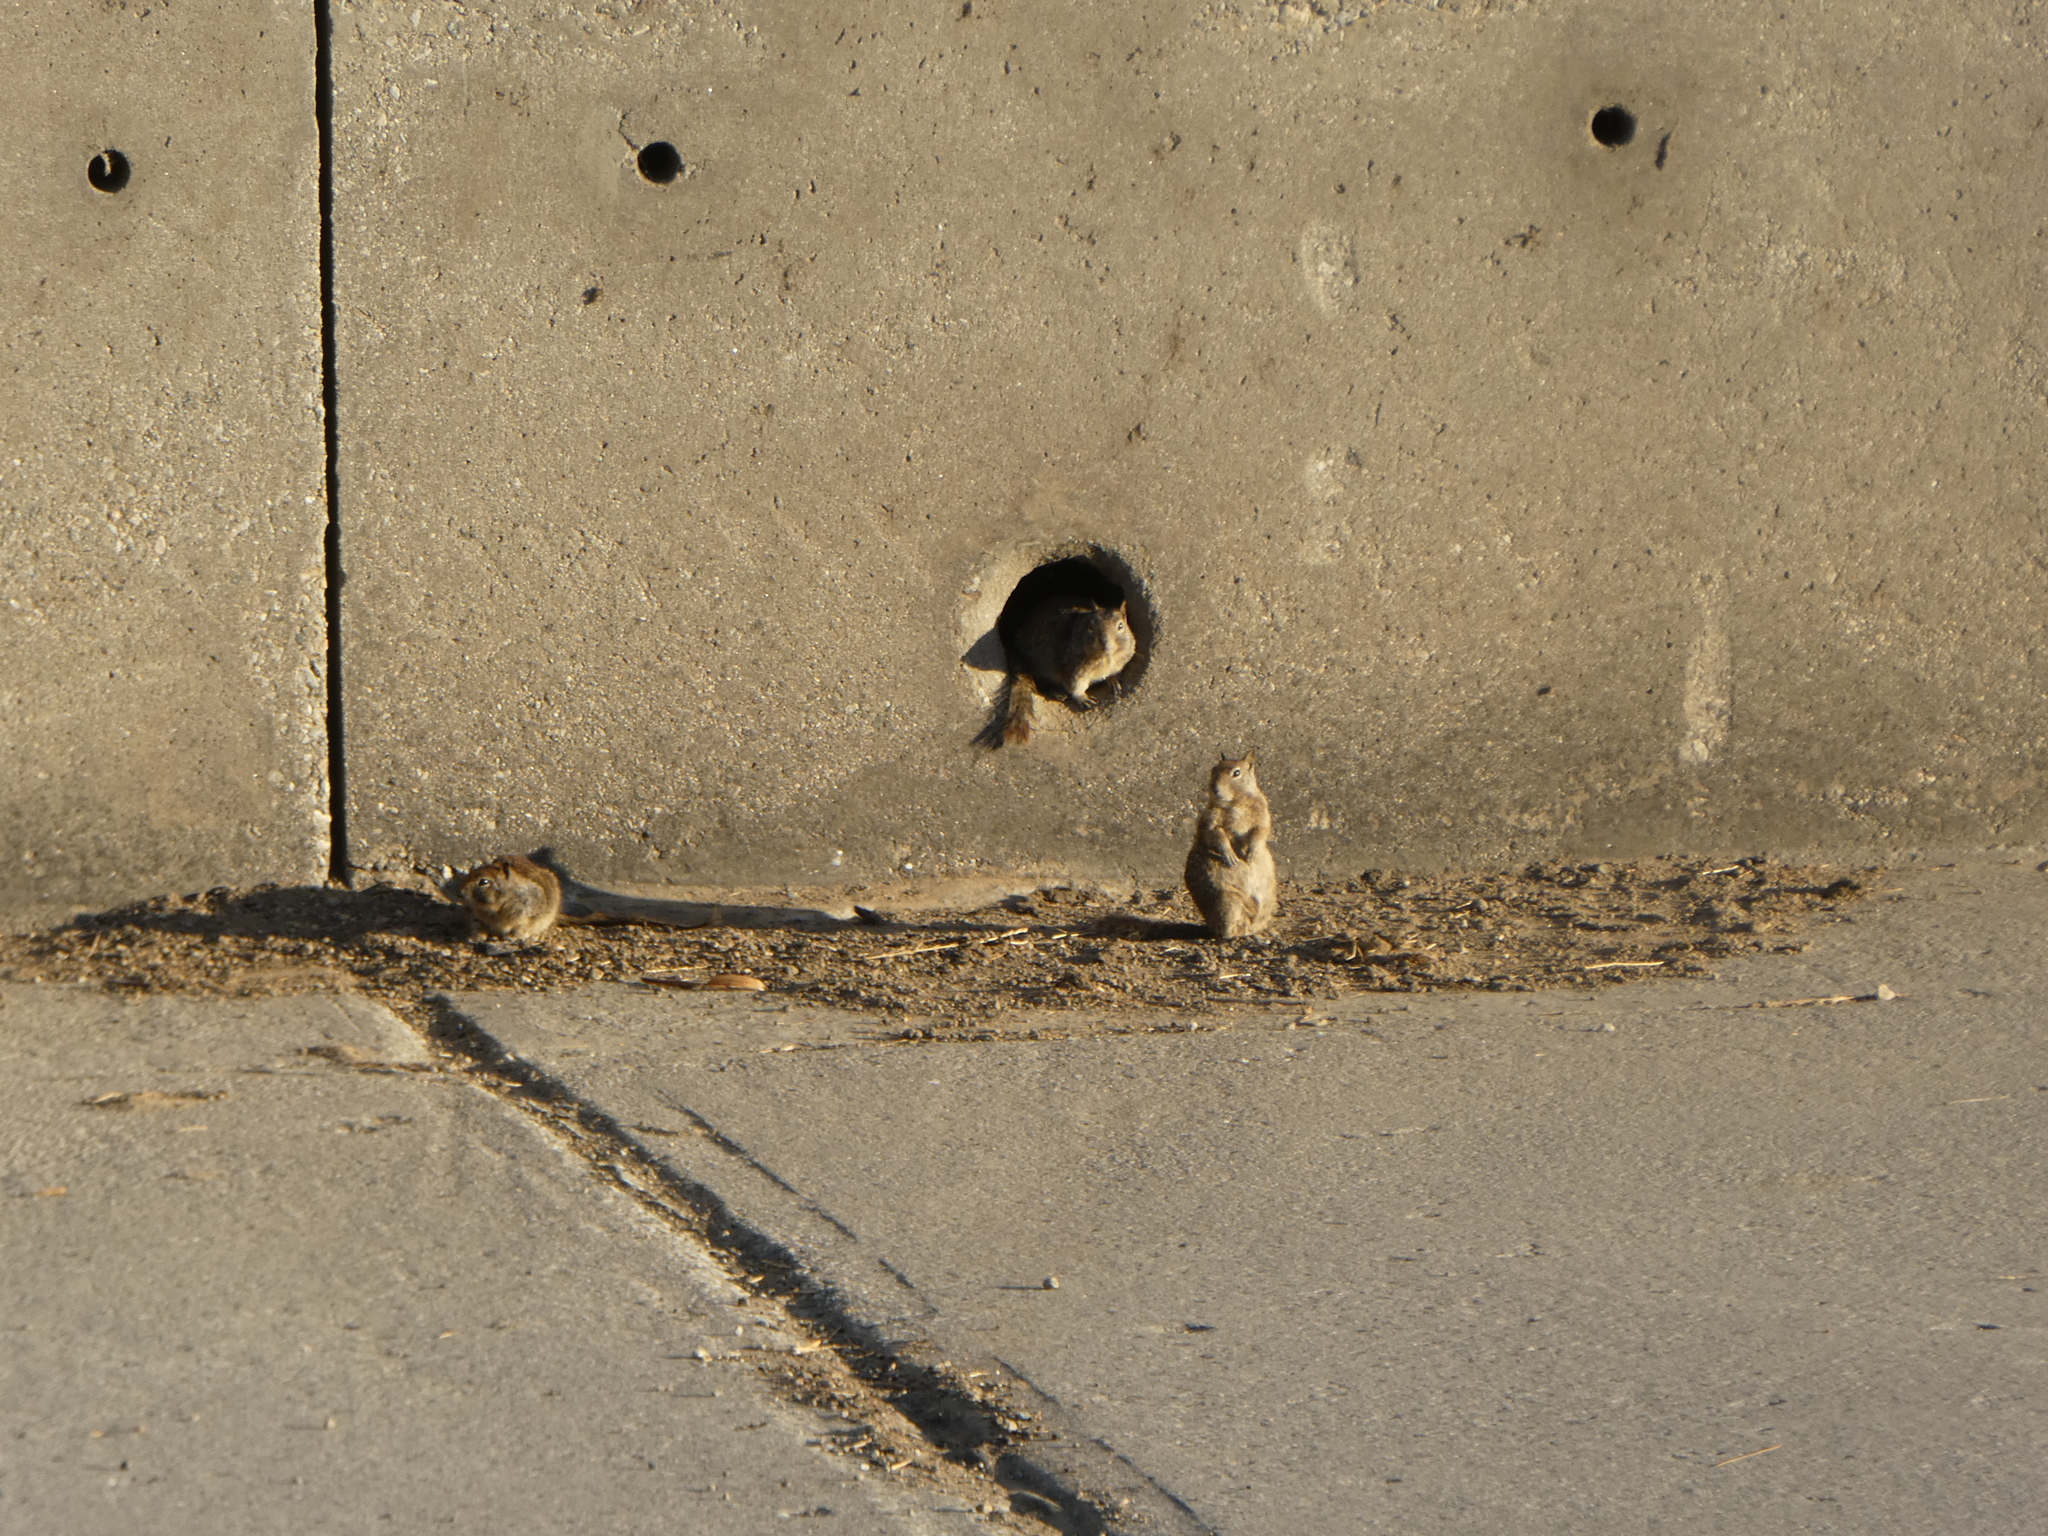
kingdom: Animalia
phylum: Chordata
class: Mammalia
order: Rodentia
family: Sciuridae
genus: Otospermophilus
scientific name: Otospermophilus beecheyi
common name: California ground squirrel
